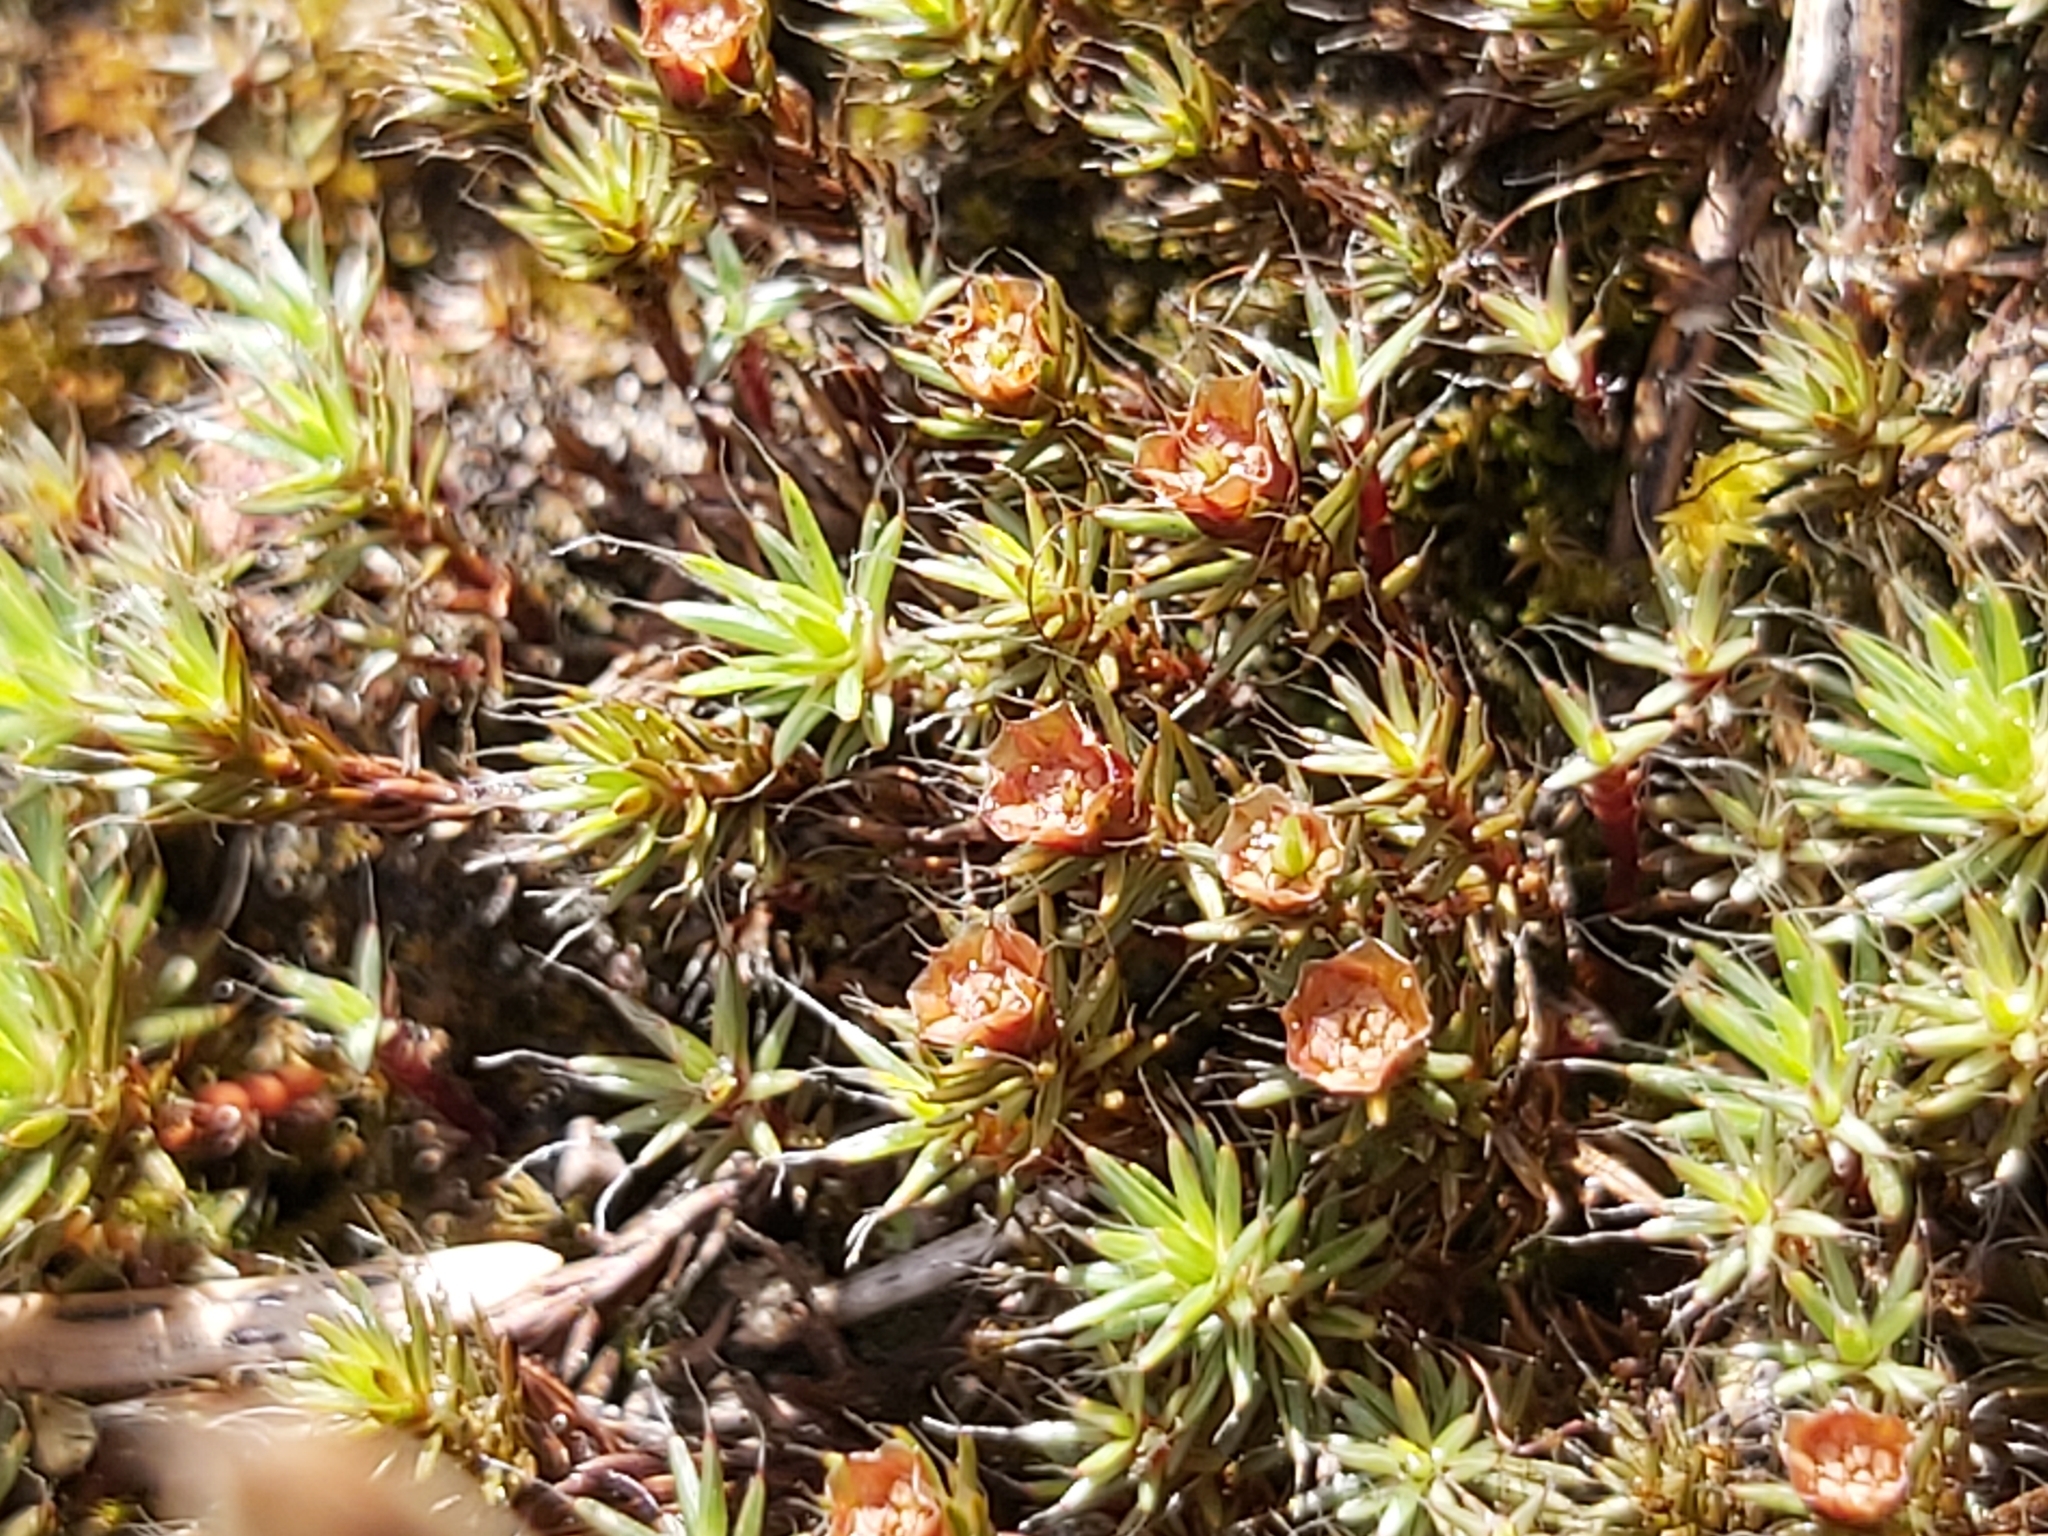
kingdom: Plantae
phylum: Bryophyta
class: Polytrichopsida
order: Polytrichales
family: Polytrichaceae
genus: Polytrichum
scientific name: Polytrichum piliferum
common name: Bristly haircap
